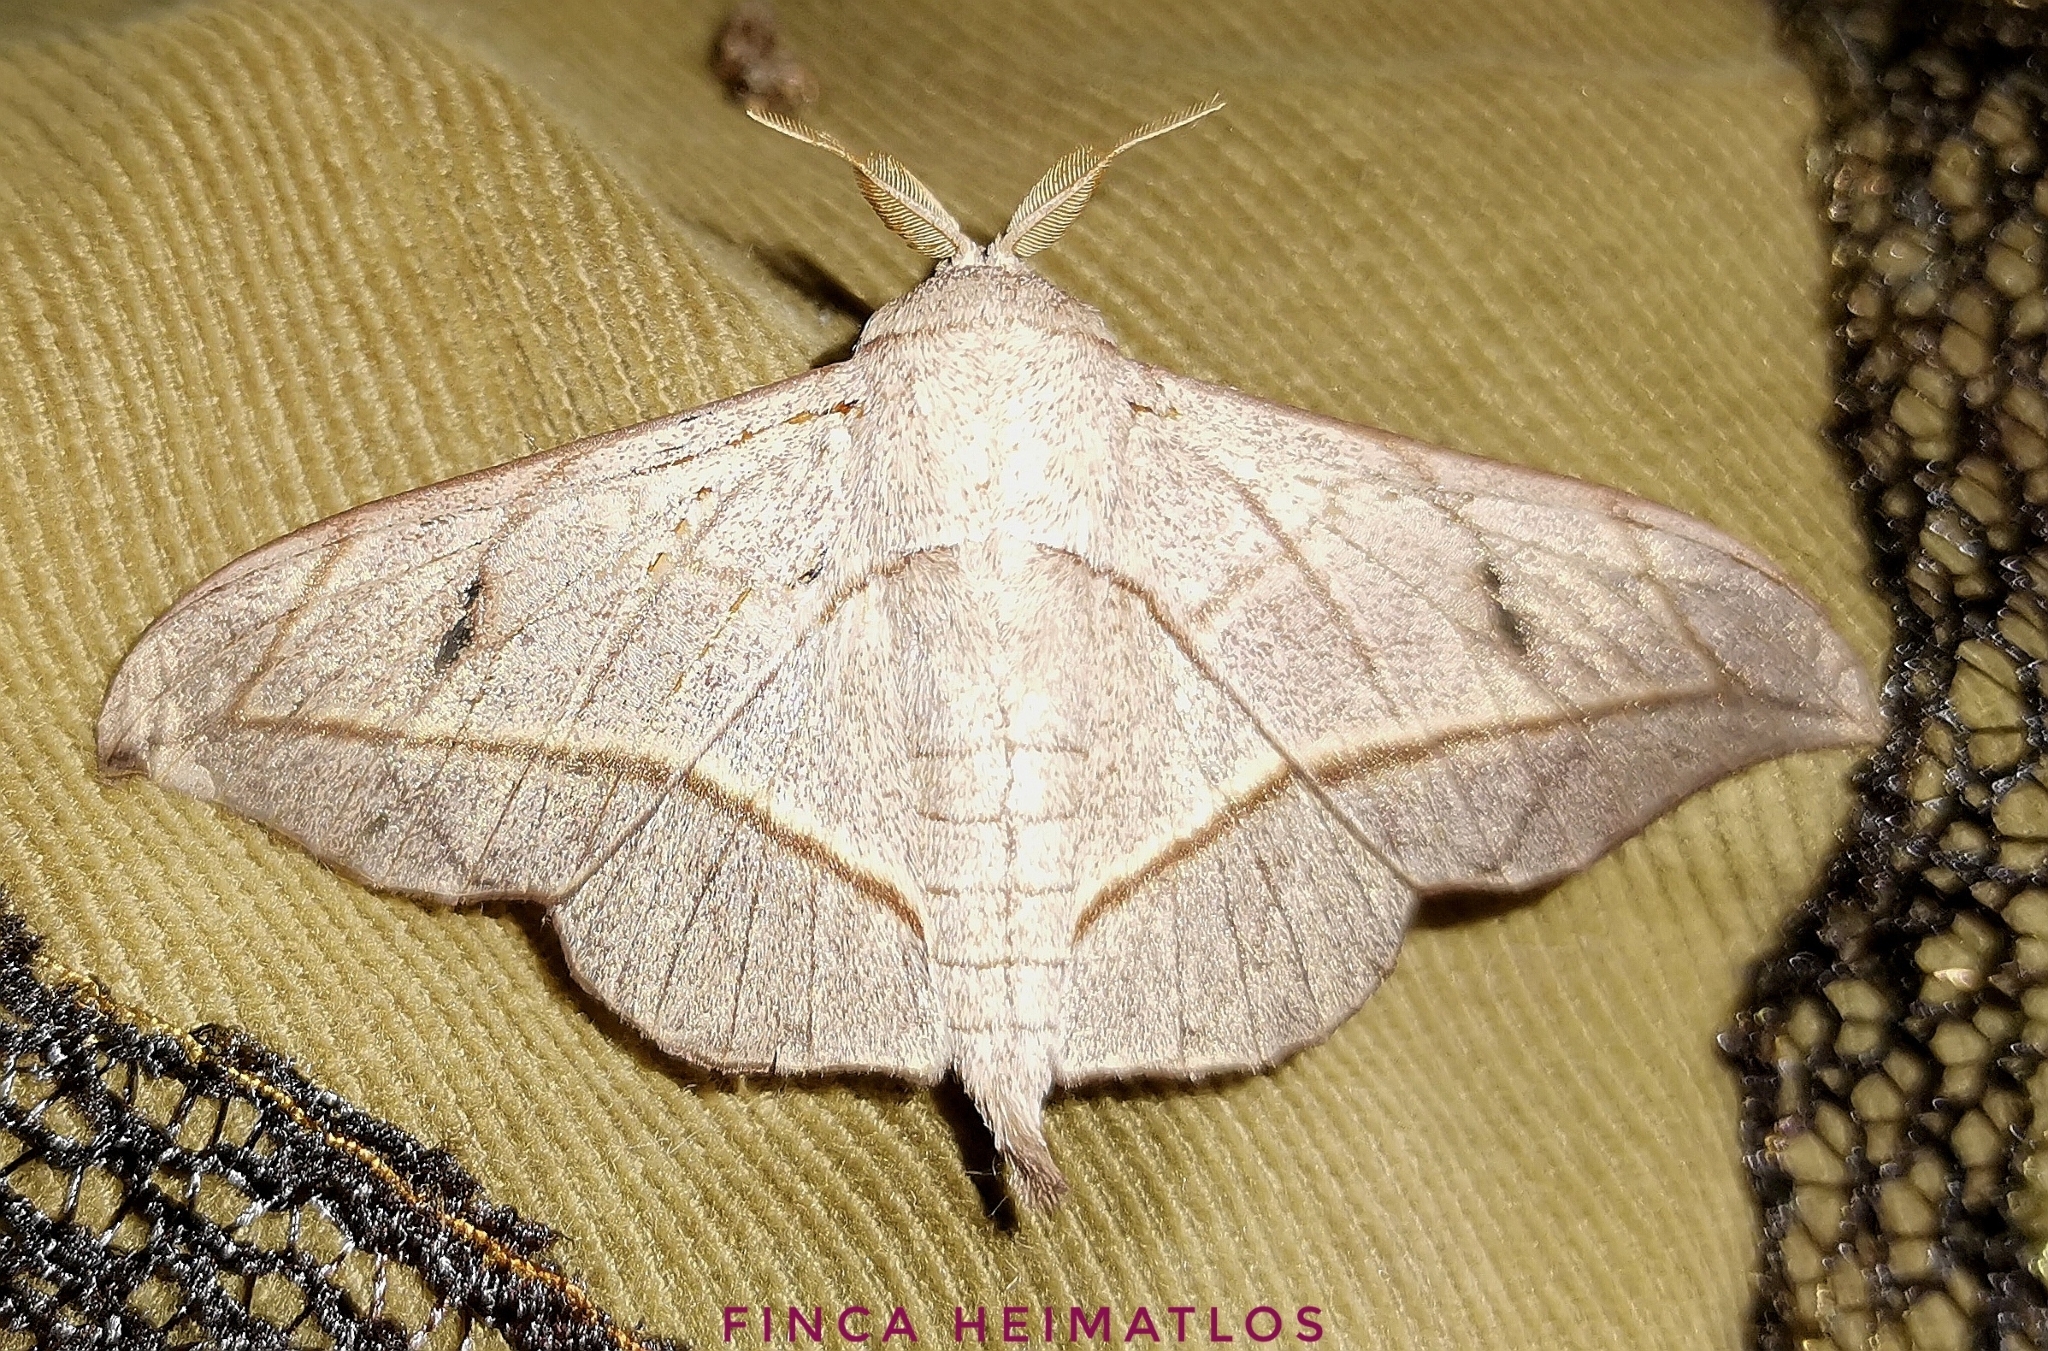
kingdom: Animalia
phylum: Arthropoda
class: Insecta
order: Lepidoptera
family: Mimallonidae
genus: Bedosia
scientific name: Bedosia fraterna
